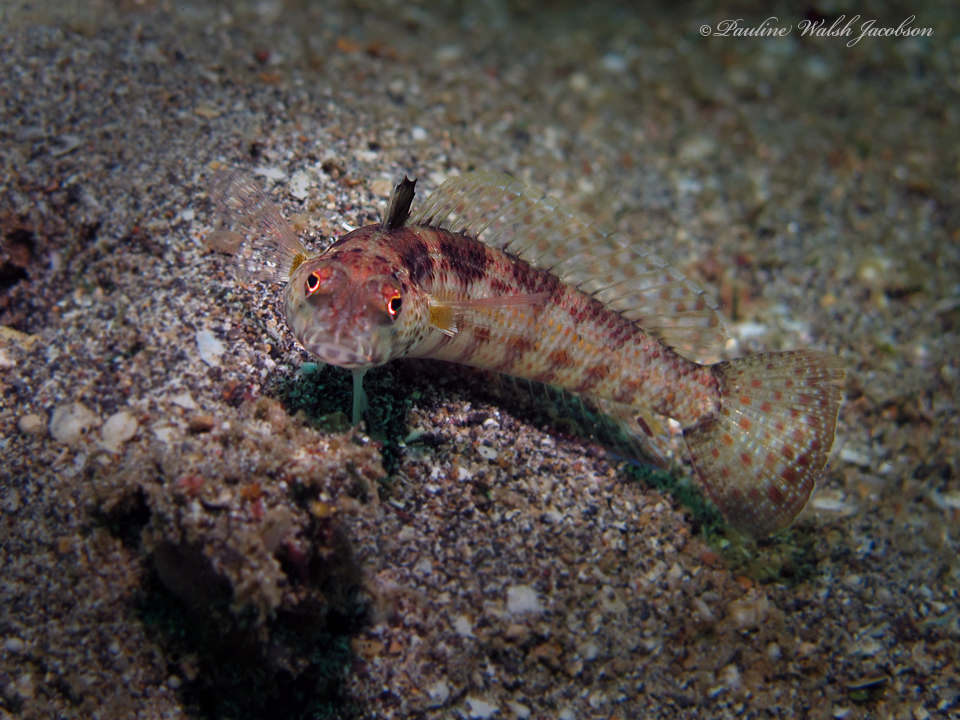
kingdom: Animalia
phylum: Chordata
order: Perciformes
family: Pinguipedidae
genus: Parapercis
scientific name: Parapercis snyderi
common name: U-mark sandperch
